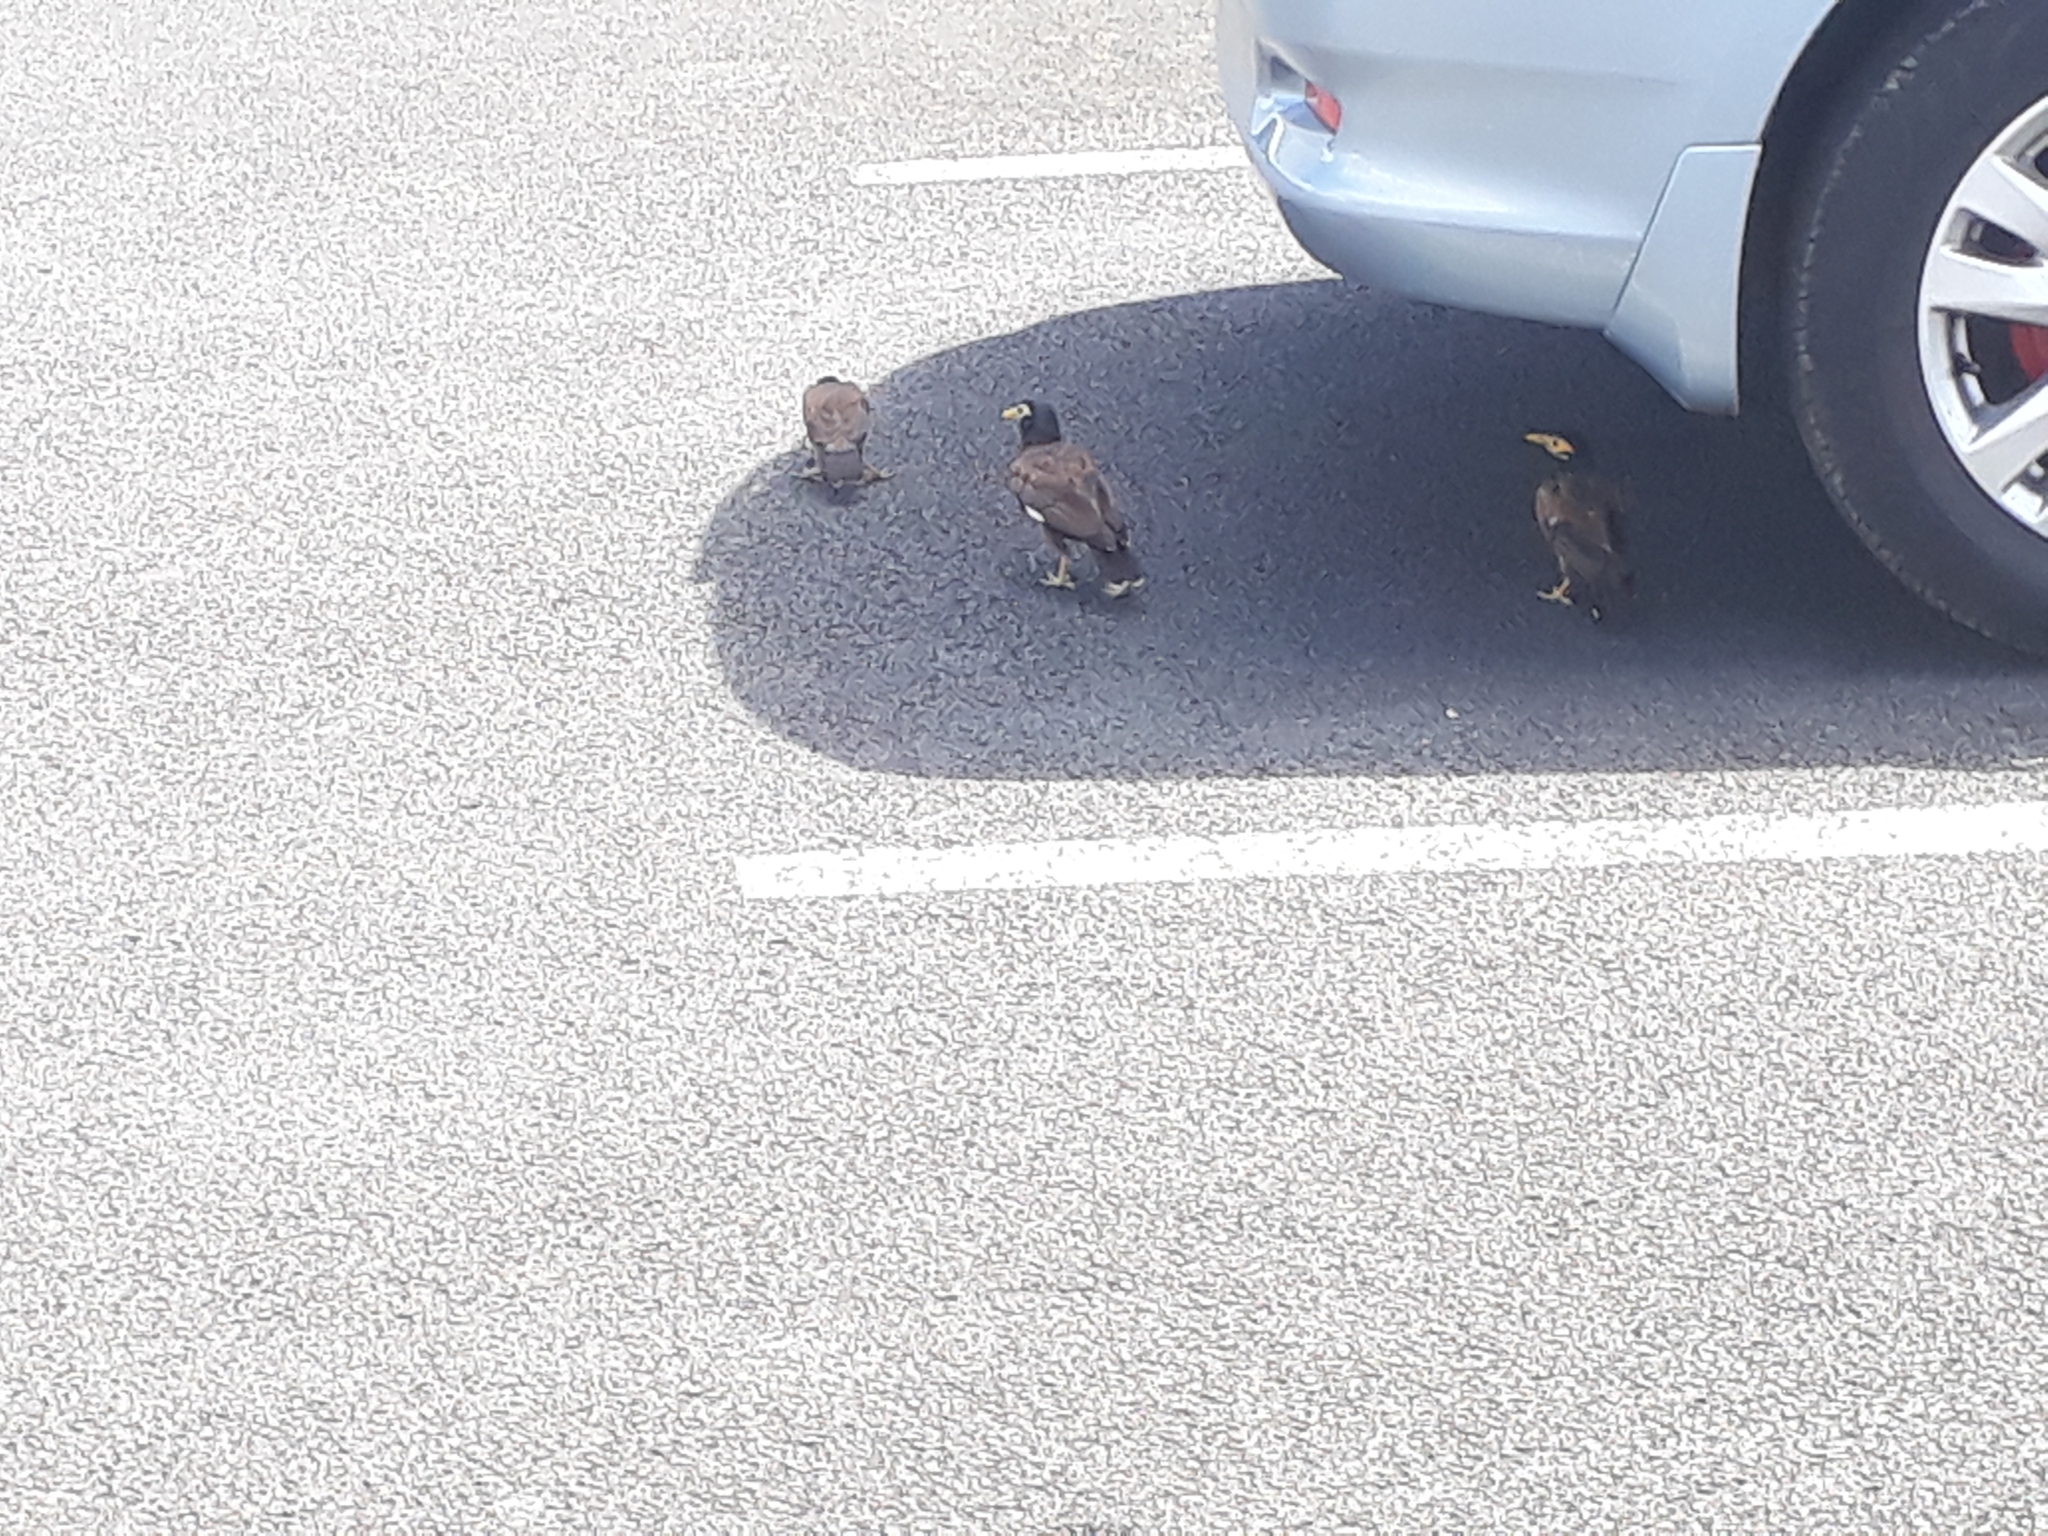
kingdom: Animalia
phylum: Chordata
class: Aves
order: Passeriformes
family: Sturnidae
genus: Acridotheres
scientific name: Acridotheres tristis
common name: Common myna
